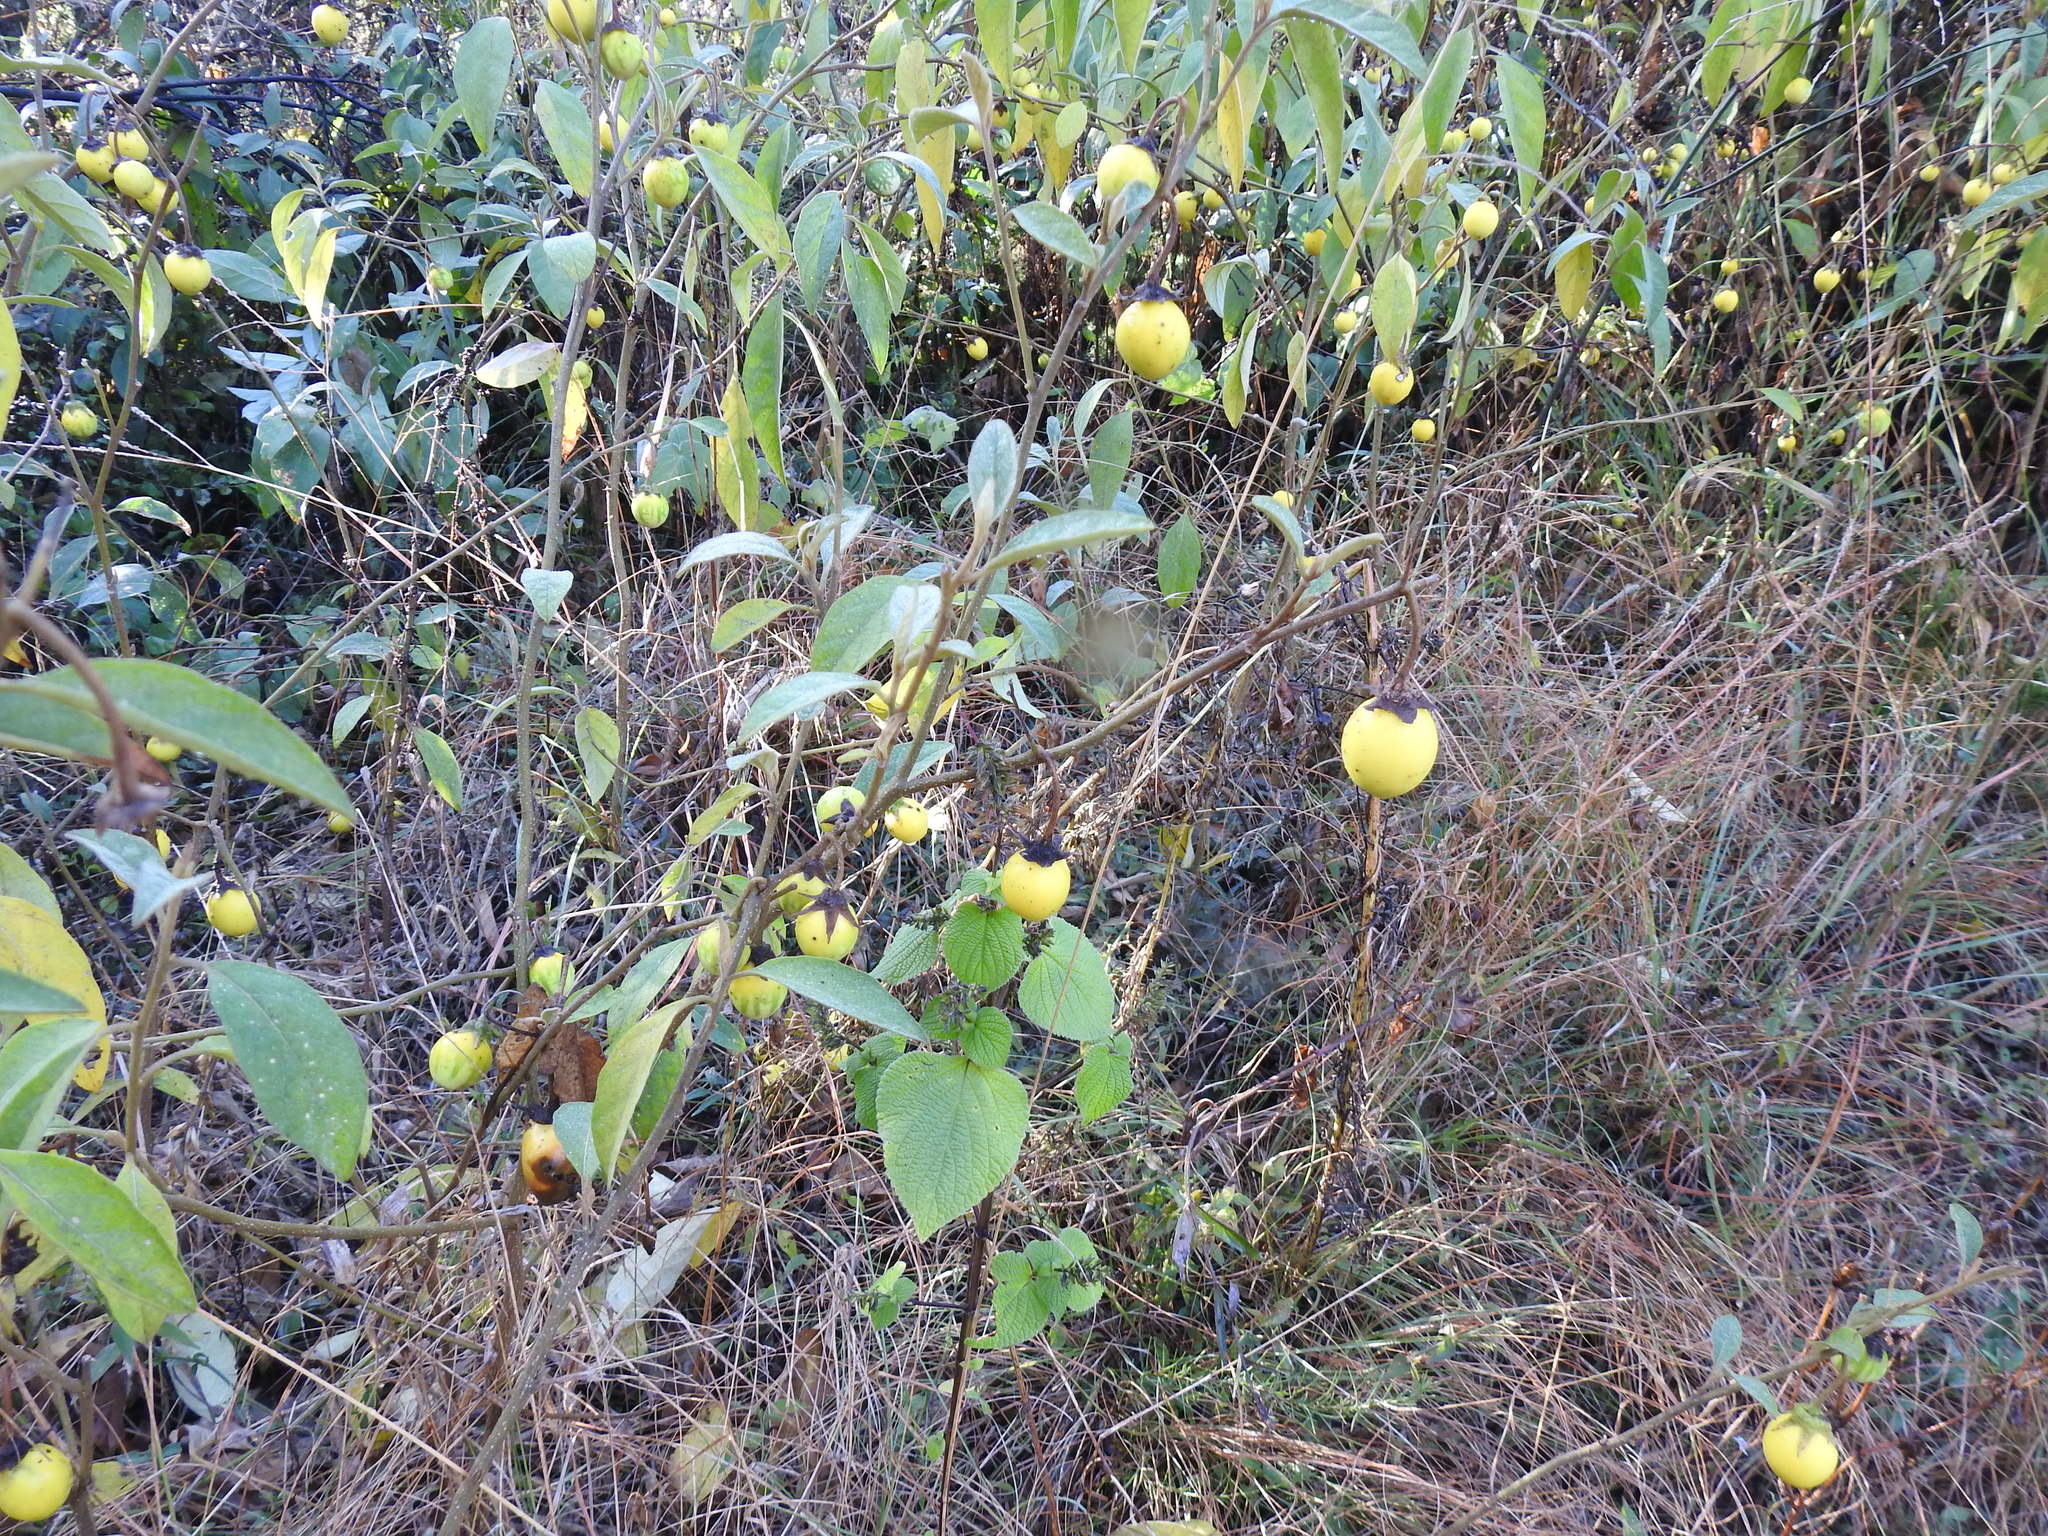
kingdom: Plantae
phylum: Tracheophyta
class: Magnoliopsida
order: Solanales
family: Solanaceae
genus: Solanum
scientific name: Solanum campylacanthum
